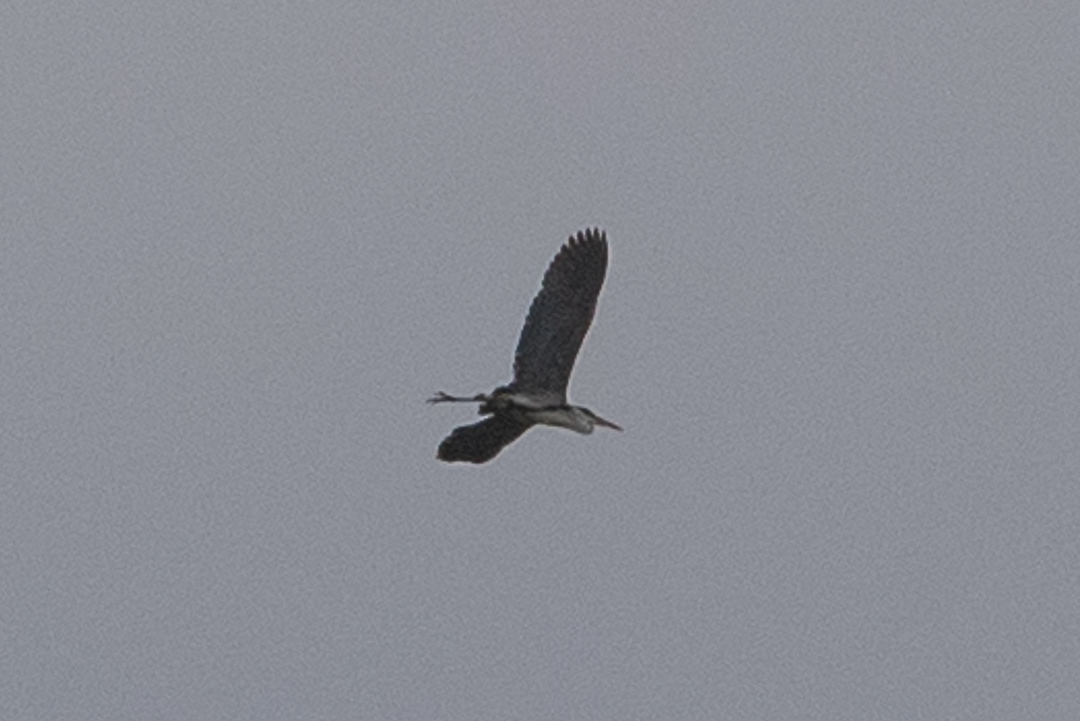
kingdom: Animalia
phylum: Chordata
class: Aves
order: Pelecaniformes
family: Ardeidae
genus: Ardea
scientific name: Ardea cocoi
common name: Cocoi heron
